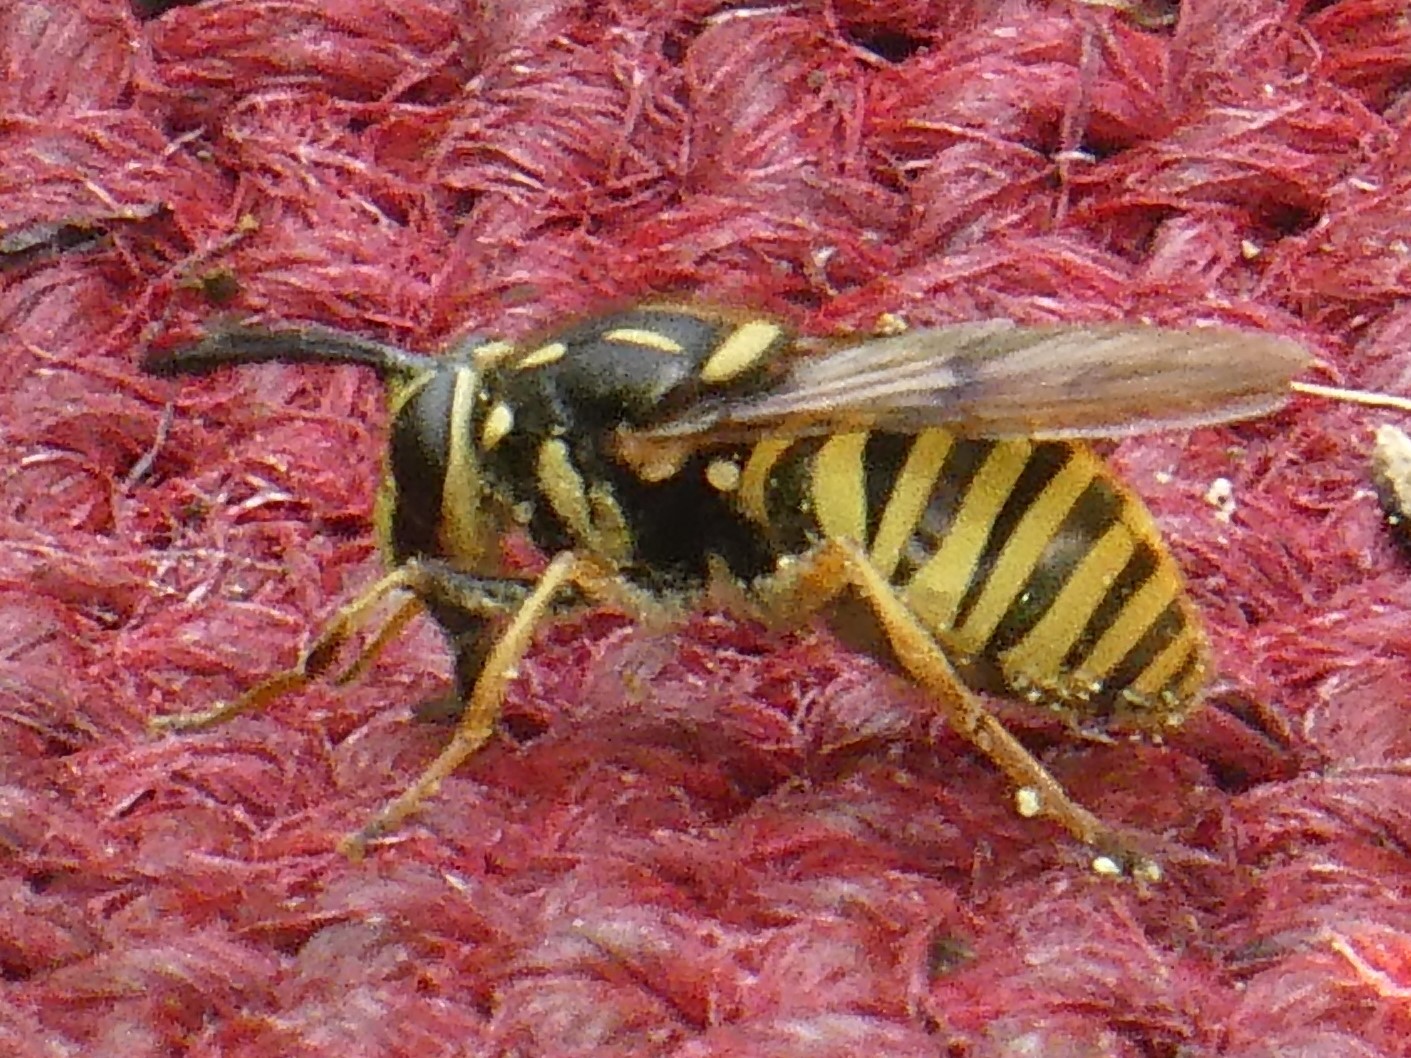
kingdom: Animalia
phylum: Arthropoda
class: Insecta
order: Diptera
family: Syrphidae
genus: Sphecomyia
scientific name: Sphecomyia vittata
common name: Long-horned yellowjacket fly
